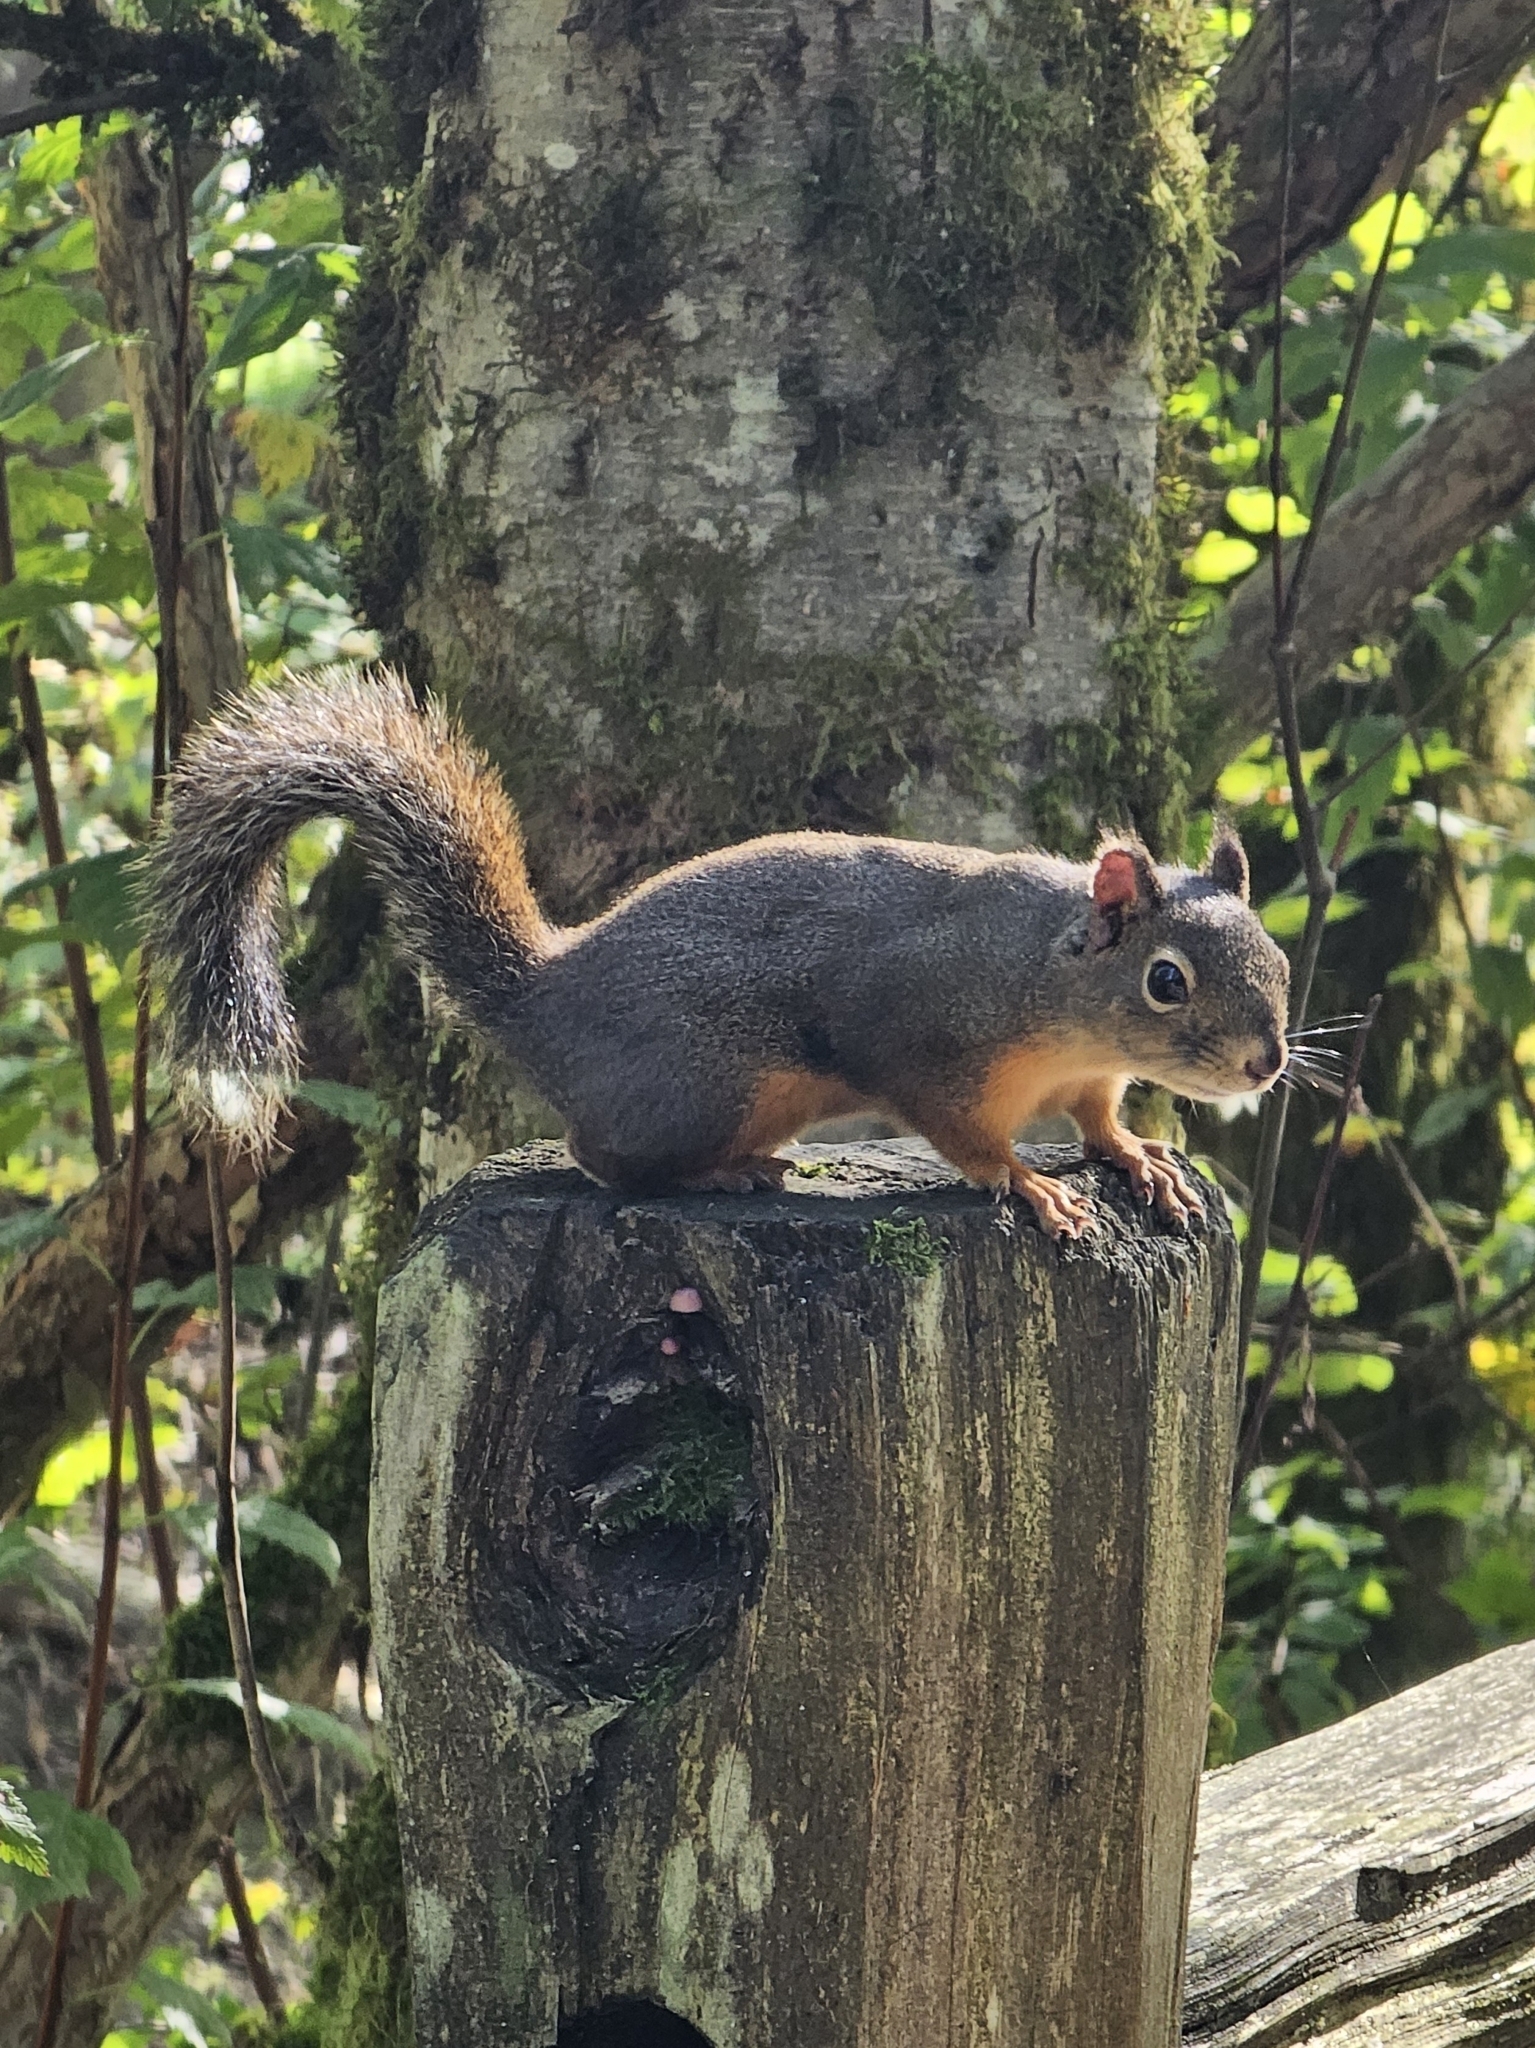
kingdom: Animalia
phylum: Chordata
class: Mammalia
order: Rodentia
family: Sciuridae
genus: Tamiasciurus
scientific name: Tamiasciurus douglasii
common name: Douglas's squirrel
